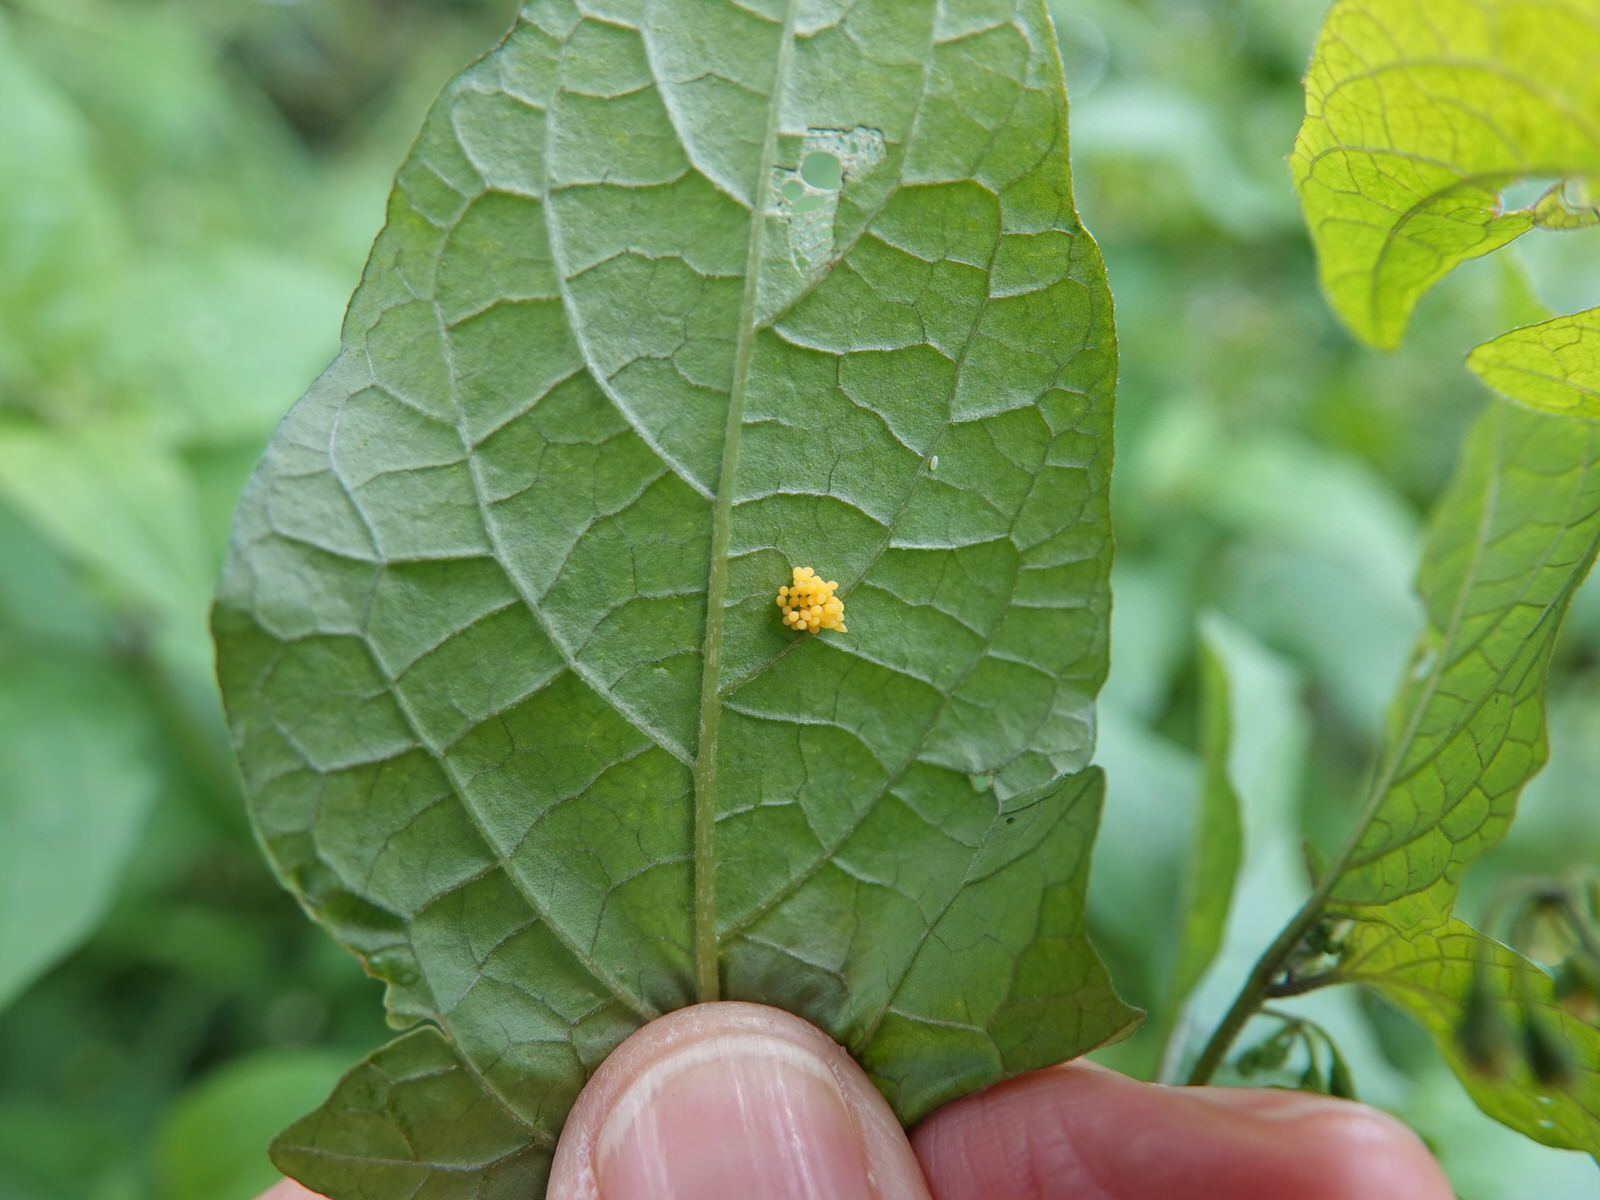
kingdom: Animalia
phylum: Arthropoda
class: Insecta
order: Coleoptera
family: Coccinellidae
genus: Henosepilachna
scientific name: Henosepilachna vigintioctopunctata
